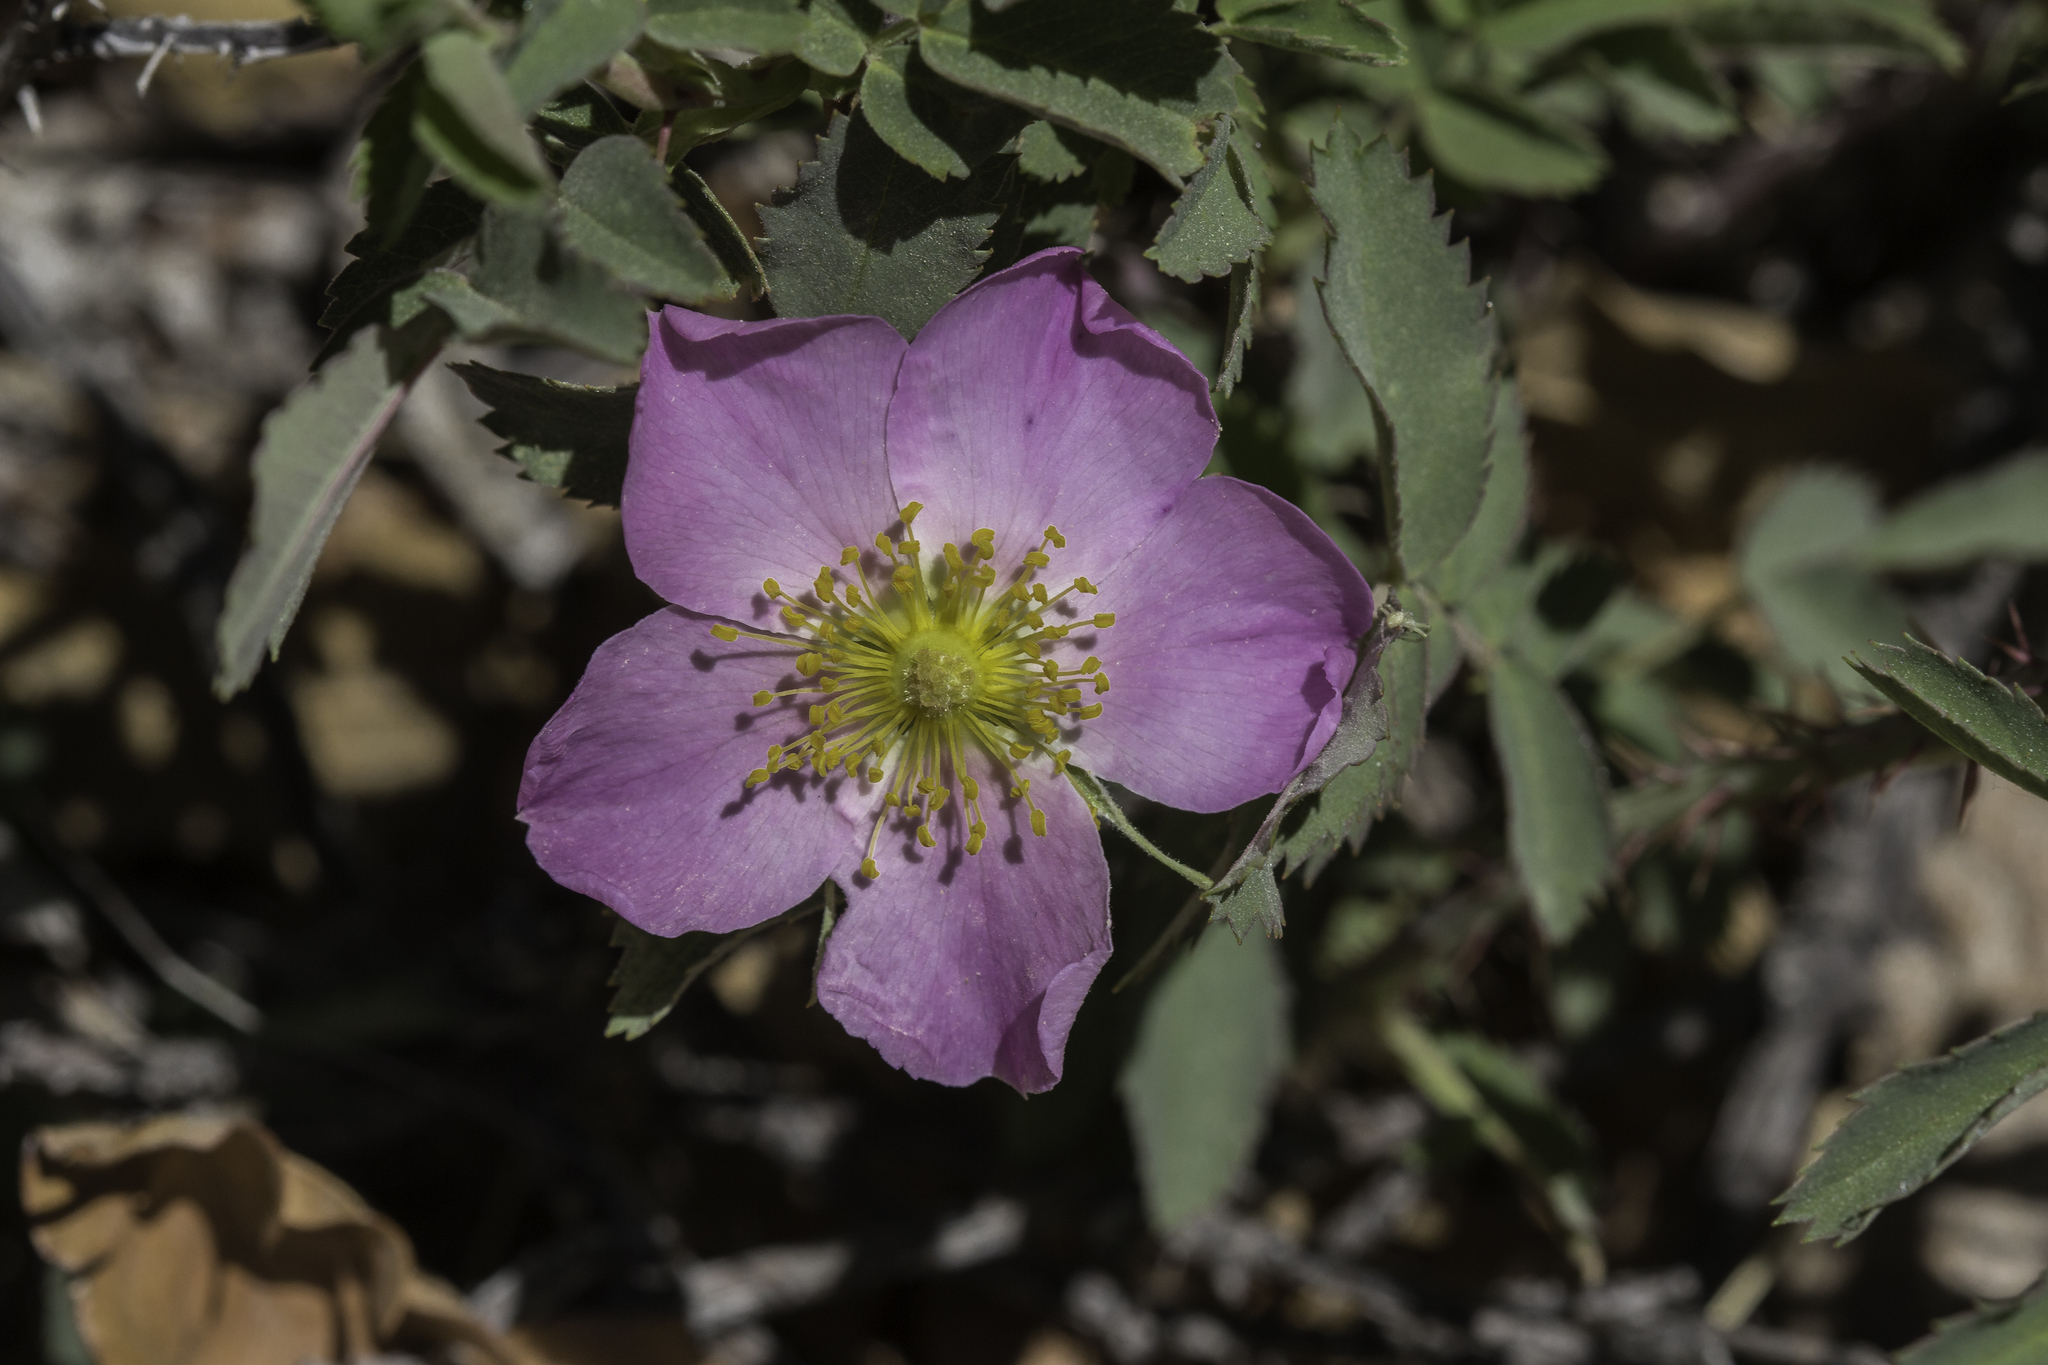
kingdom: Plantae
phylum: Tracheophyta
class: Magnoliopsida
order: Rosales
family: Rosaceae
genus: Rosa
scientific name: Rosa woodsii
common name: Woods's rose
